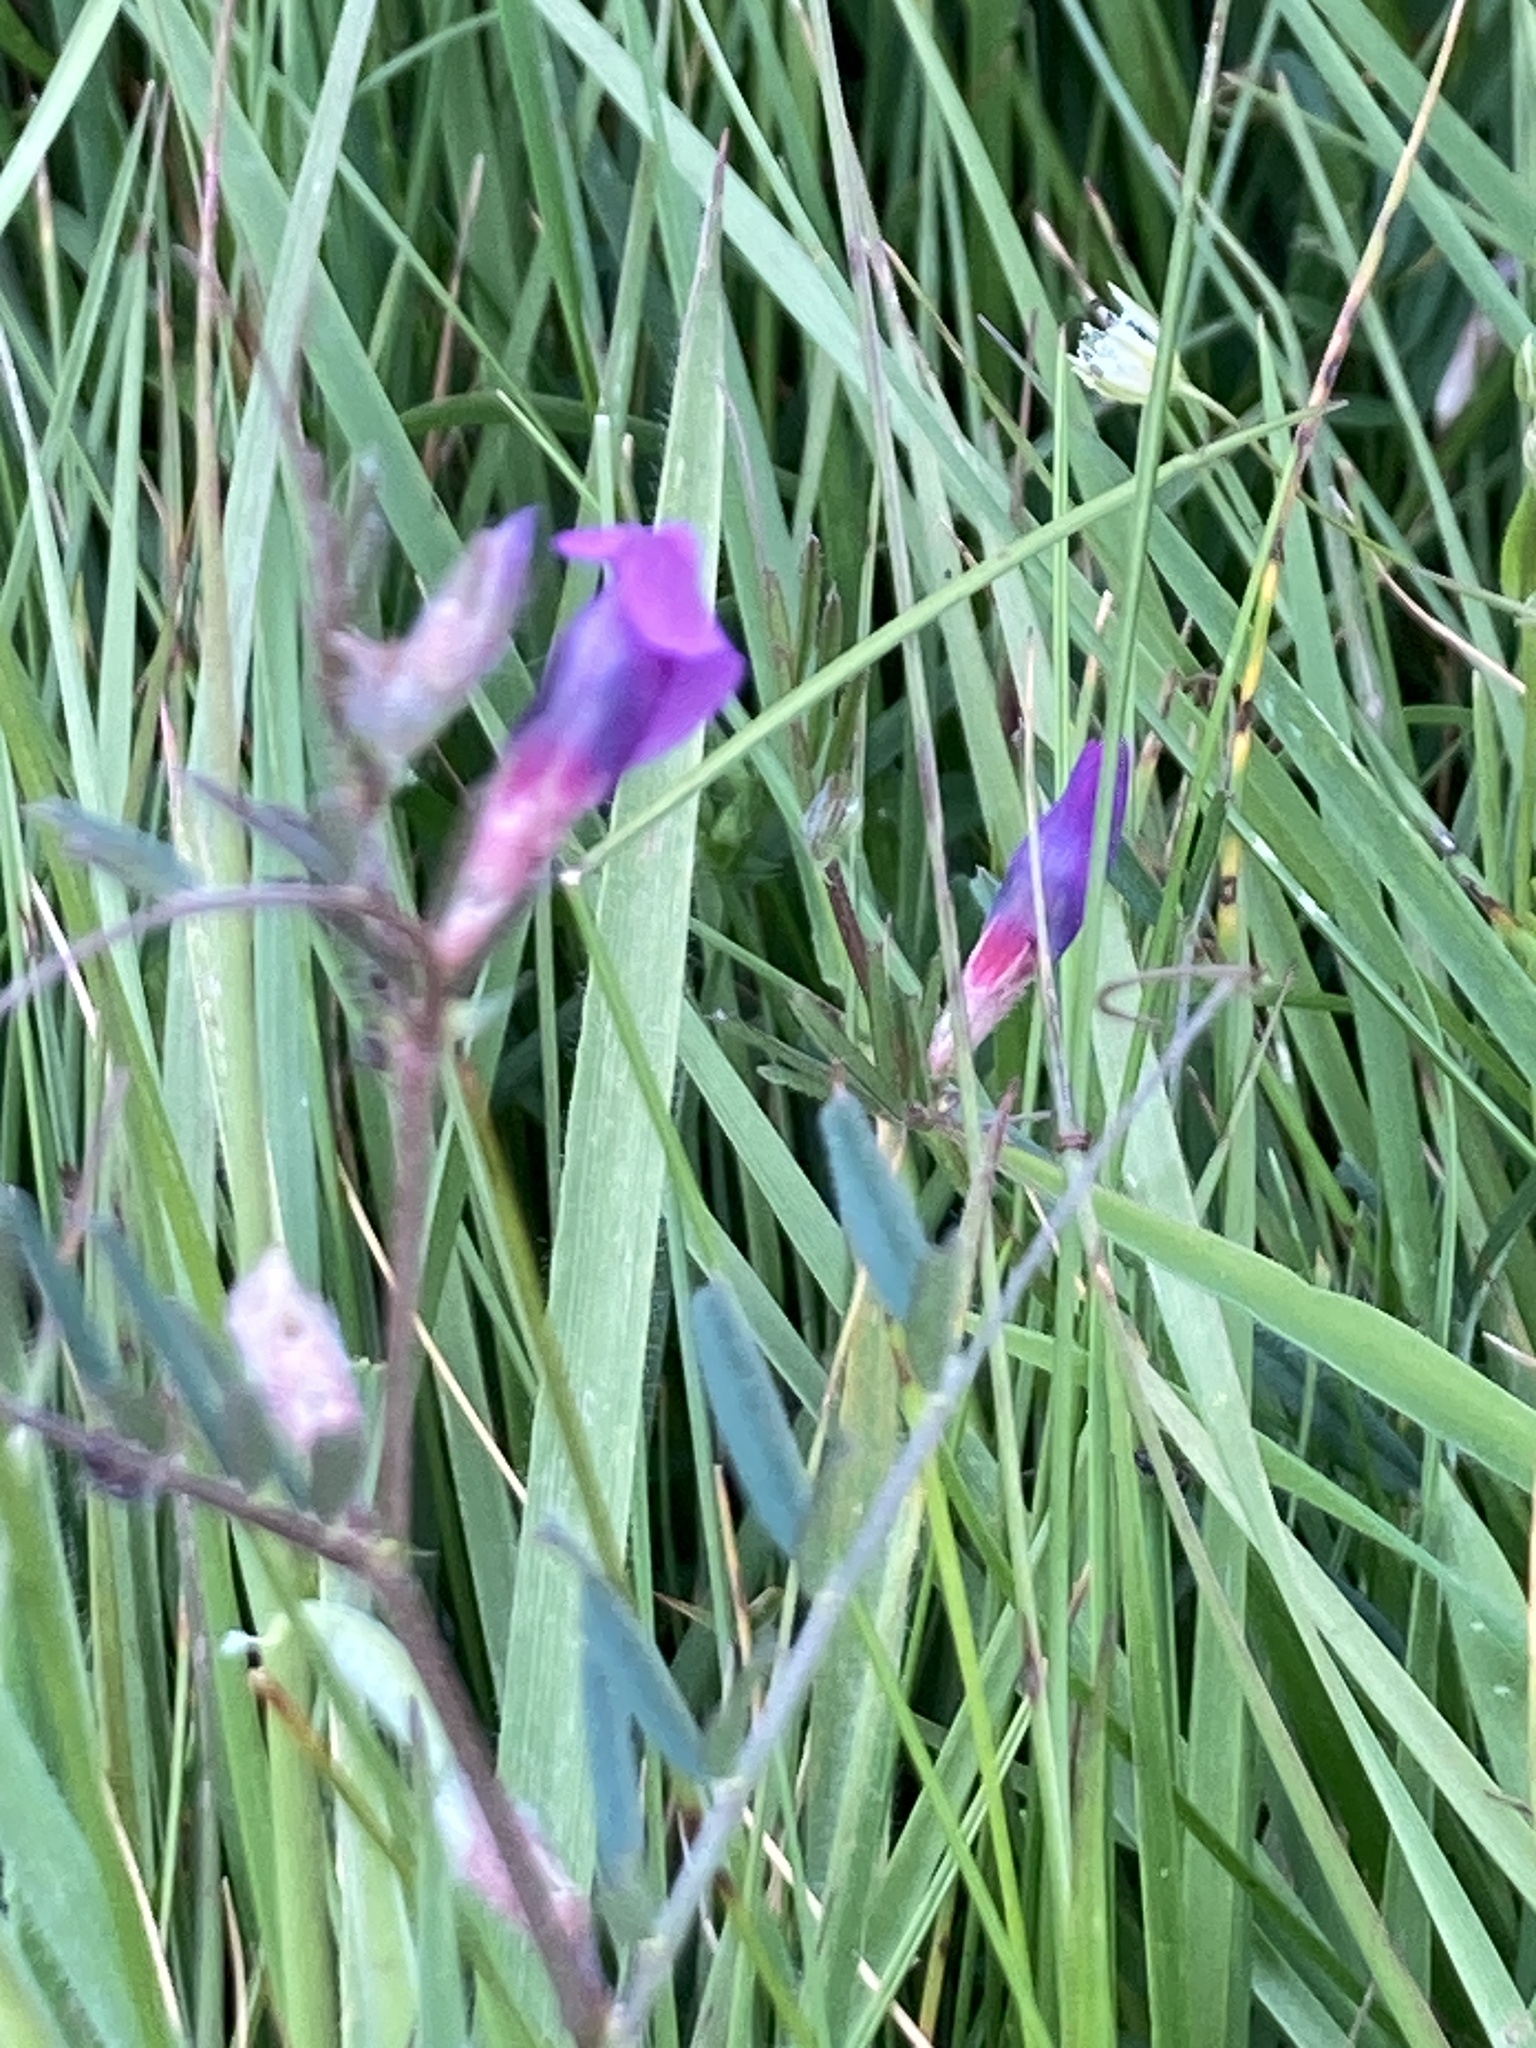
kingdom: Plantae
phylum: Tracheophyta
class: Magnoliopsida
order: Fabales
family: Fabaceae
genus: Vicia
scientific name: Vicia sativa
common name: Garden vetch
